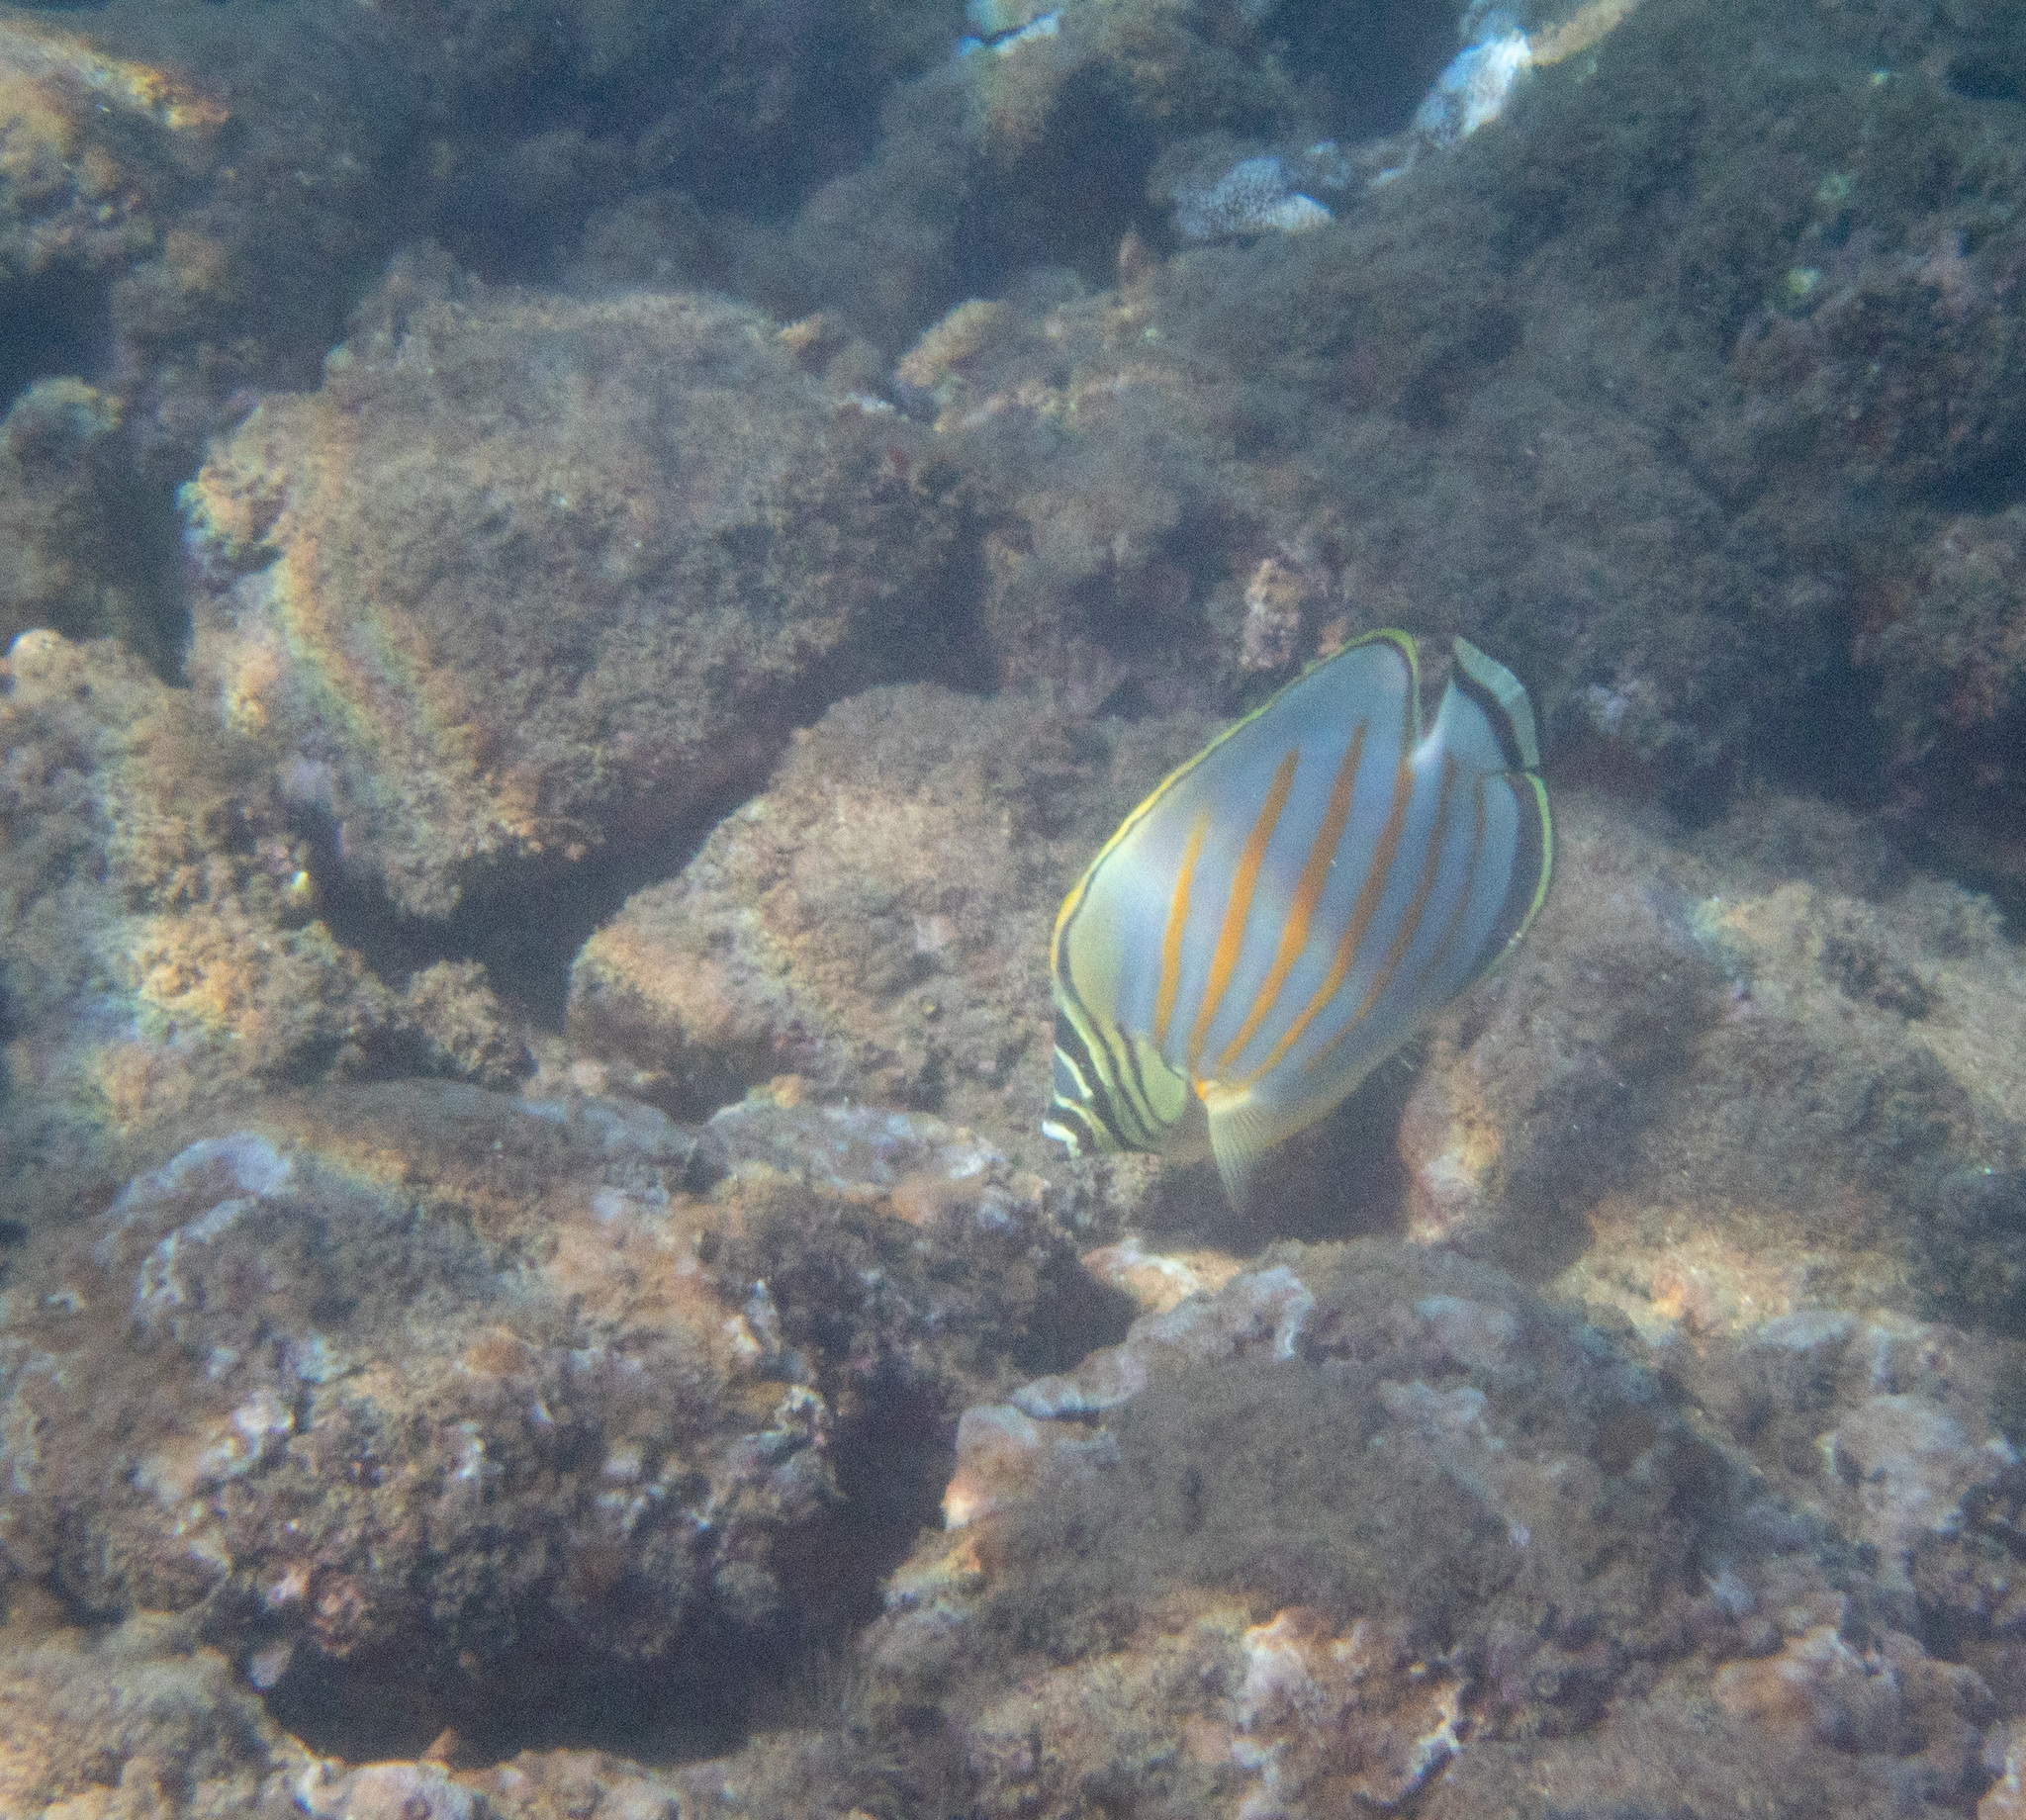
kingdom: Animalia
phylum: Chordata
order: Perciformes
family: Chaetodontidae
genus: Chaetodon
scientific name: Chaetodon ornatissimus
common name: Ornate butterflyfish
